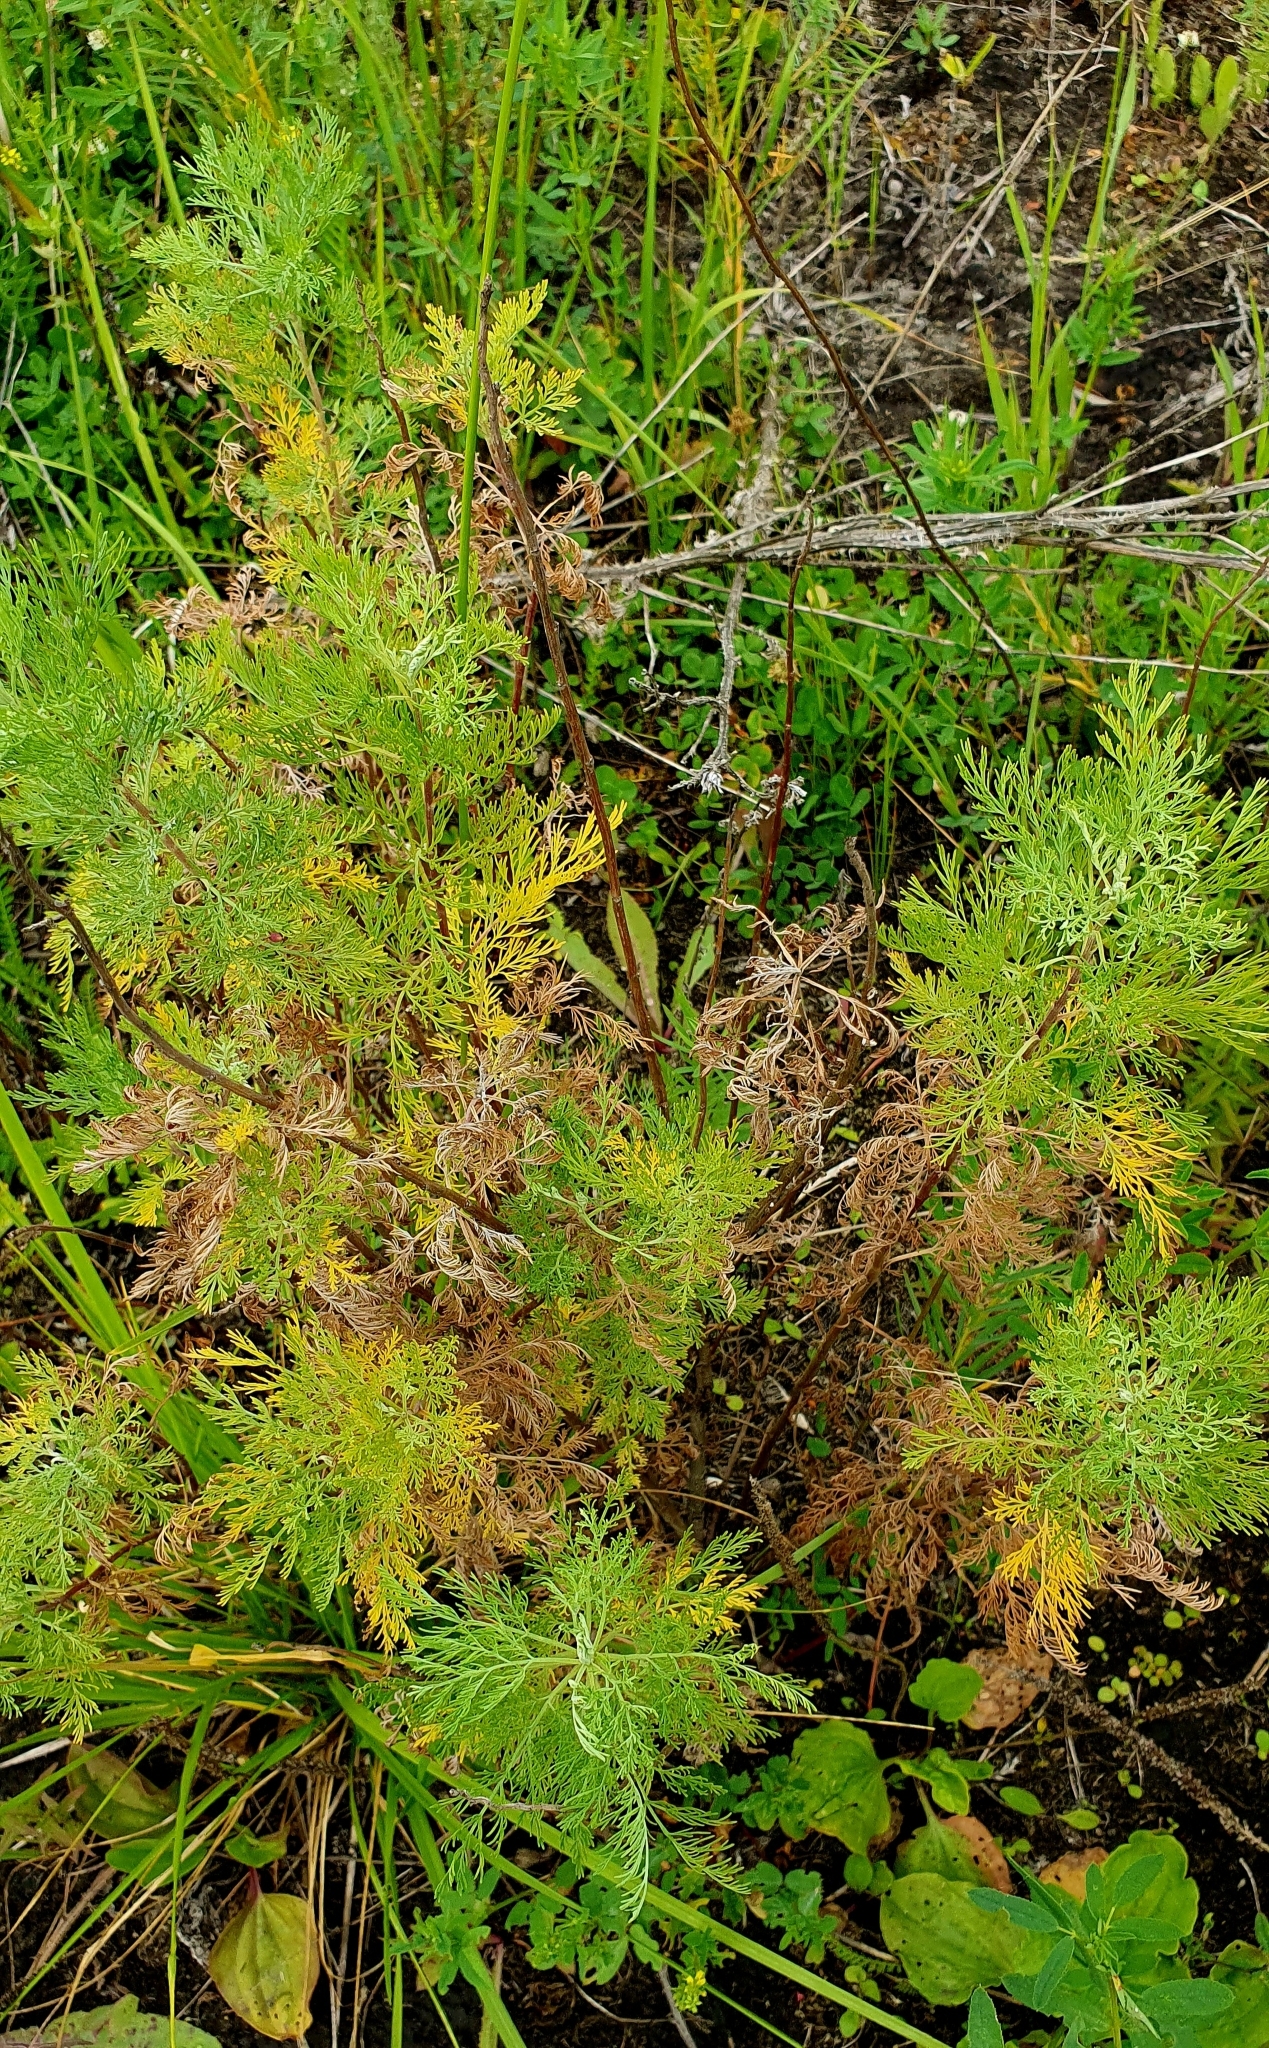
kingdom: Plantae
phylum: Tracheophyta
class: Magnoliopsida
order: Asterales
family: Asteraceae
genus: Artemisia
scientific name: Artemisia abrotanum
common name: Southernwood
